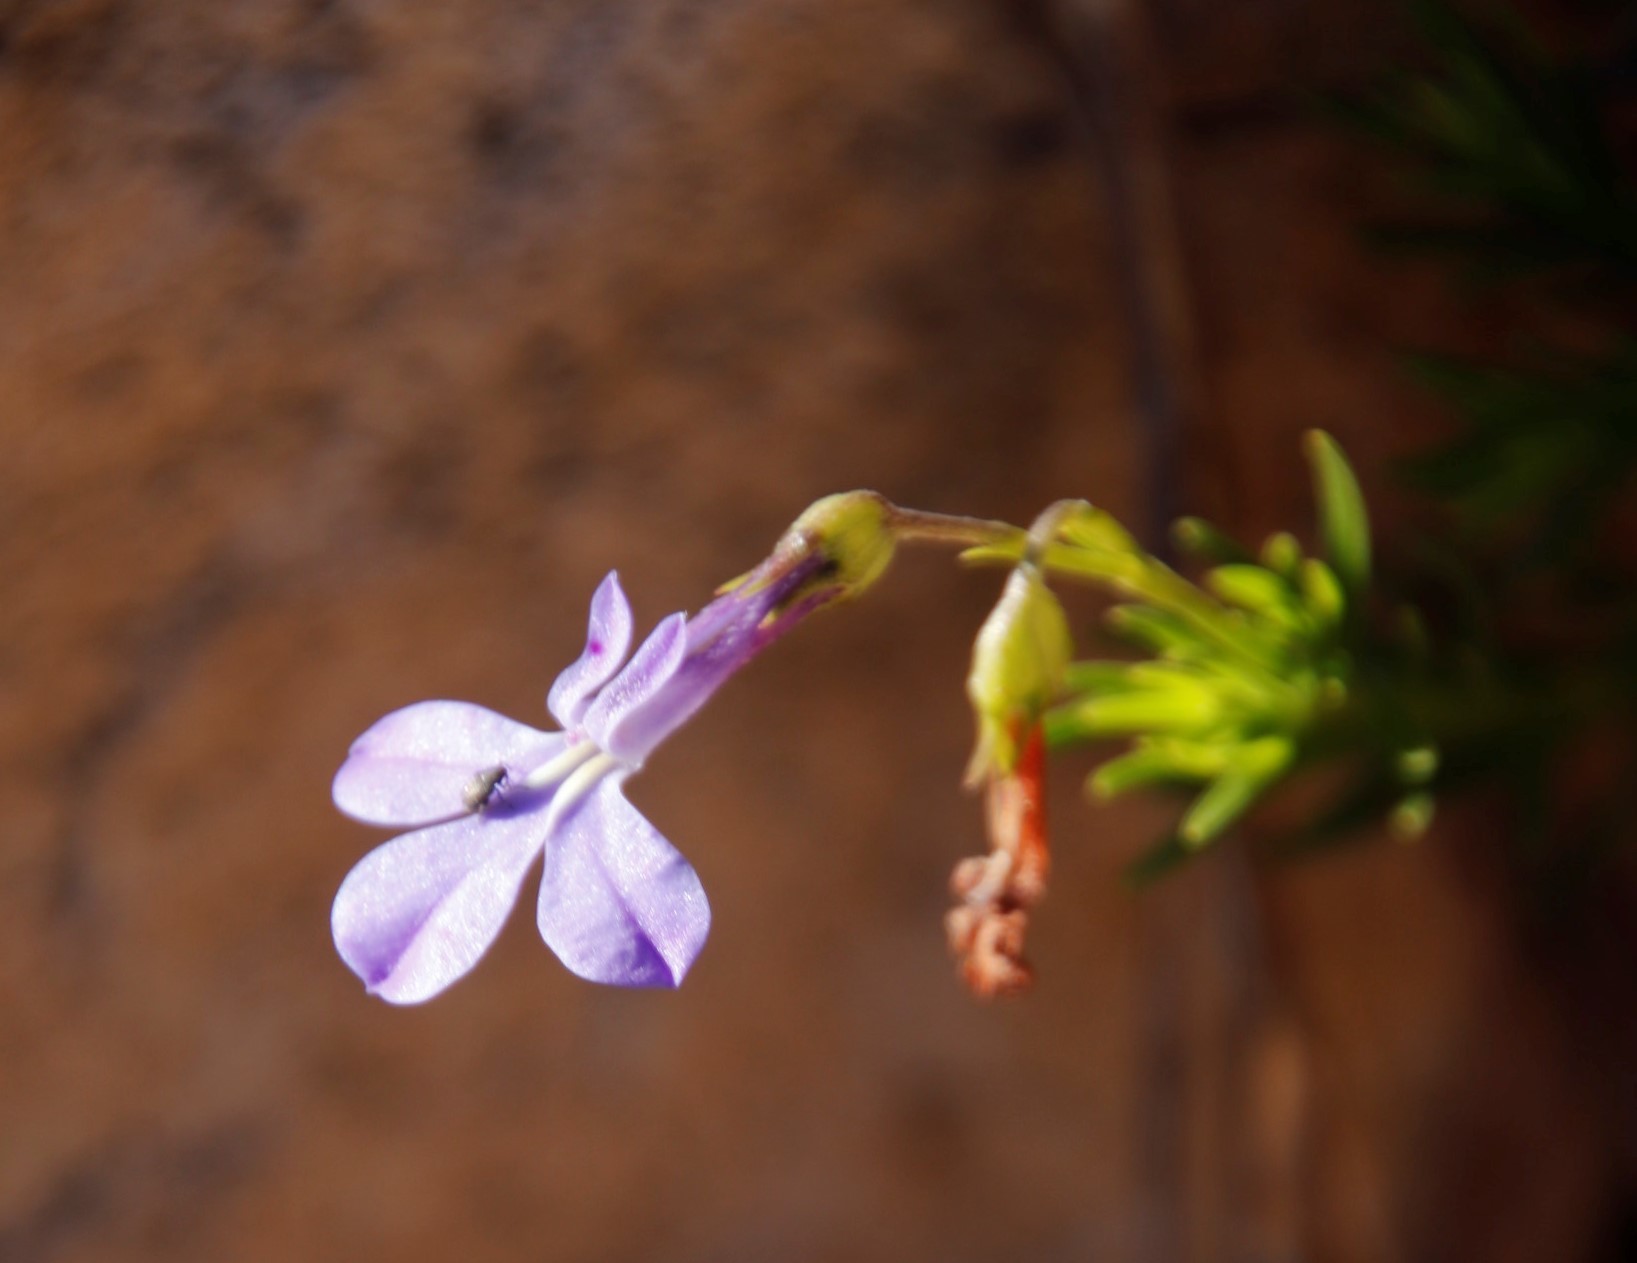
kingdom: Plantae
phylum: Tracheophyta
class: Magnoliopsida
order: Asterales
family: Campanulaceae
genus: Lobelia
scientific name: Lobelia pinifolia
